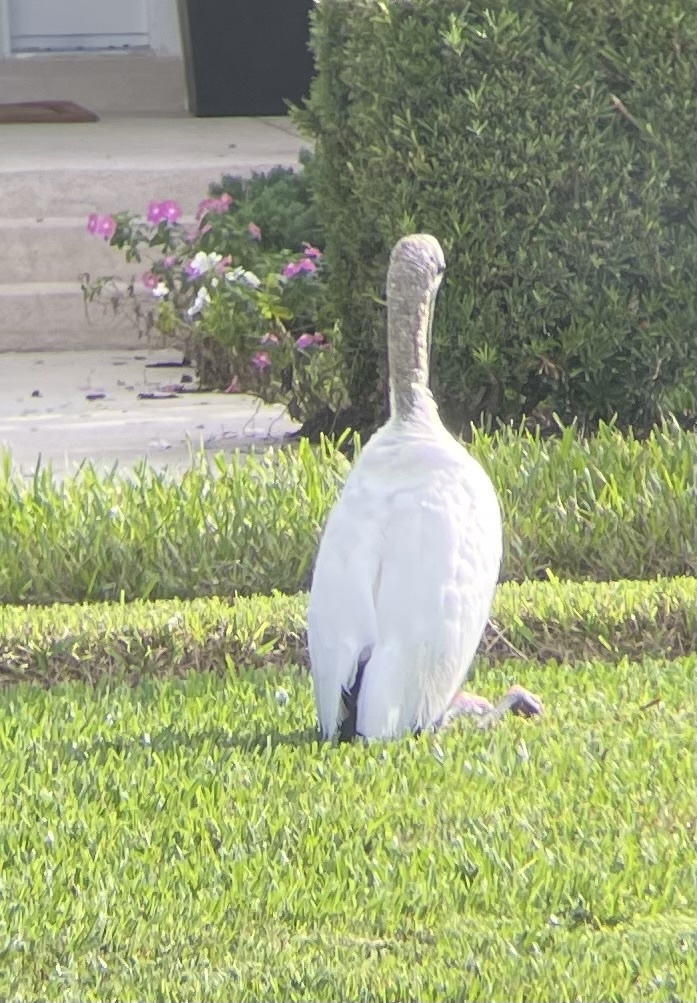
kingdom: Animalia
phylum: Chordata
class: Aves
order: Ciconiiformes
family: Ciconiidae
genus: Mycteria
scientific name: Mycteria americana
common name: Wood stork
